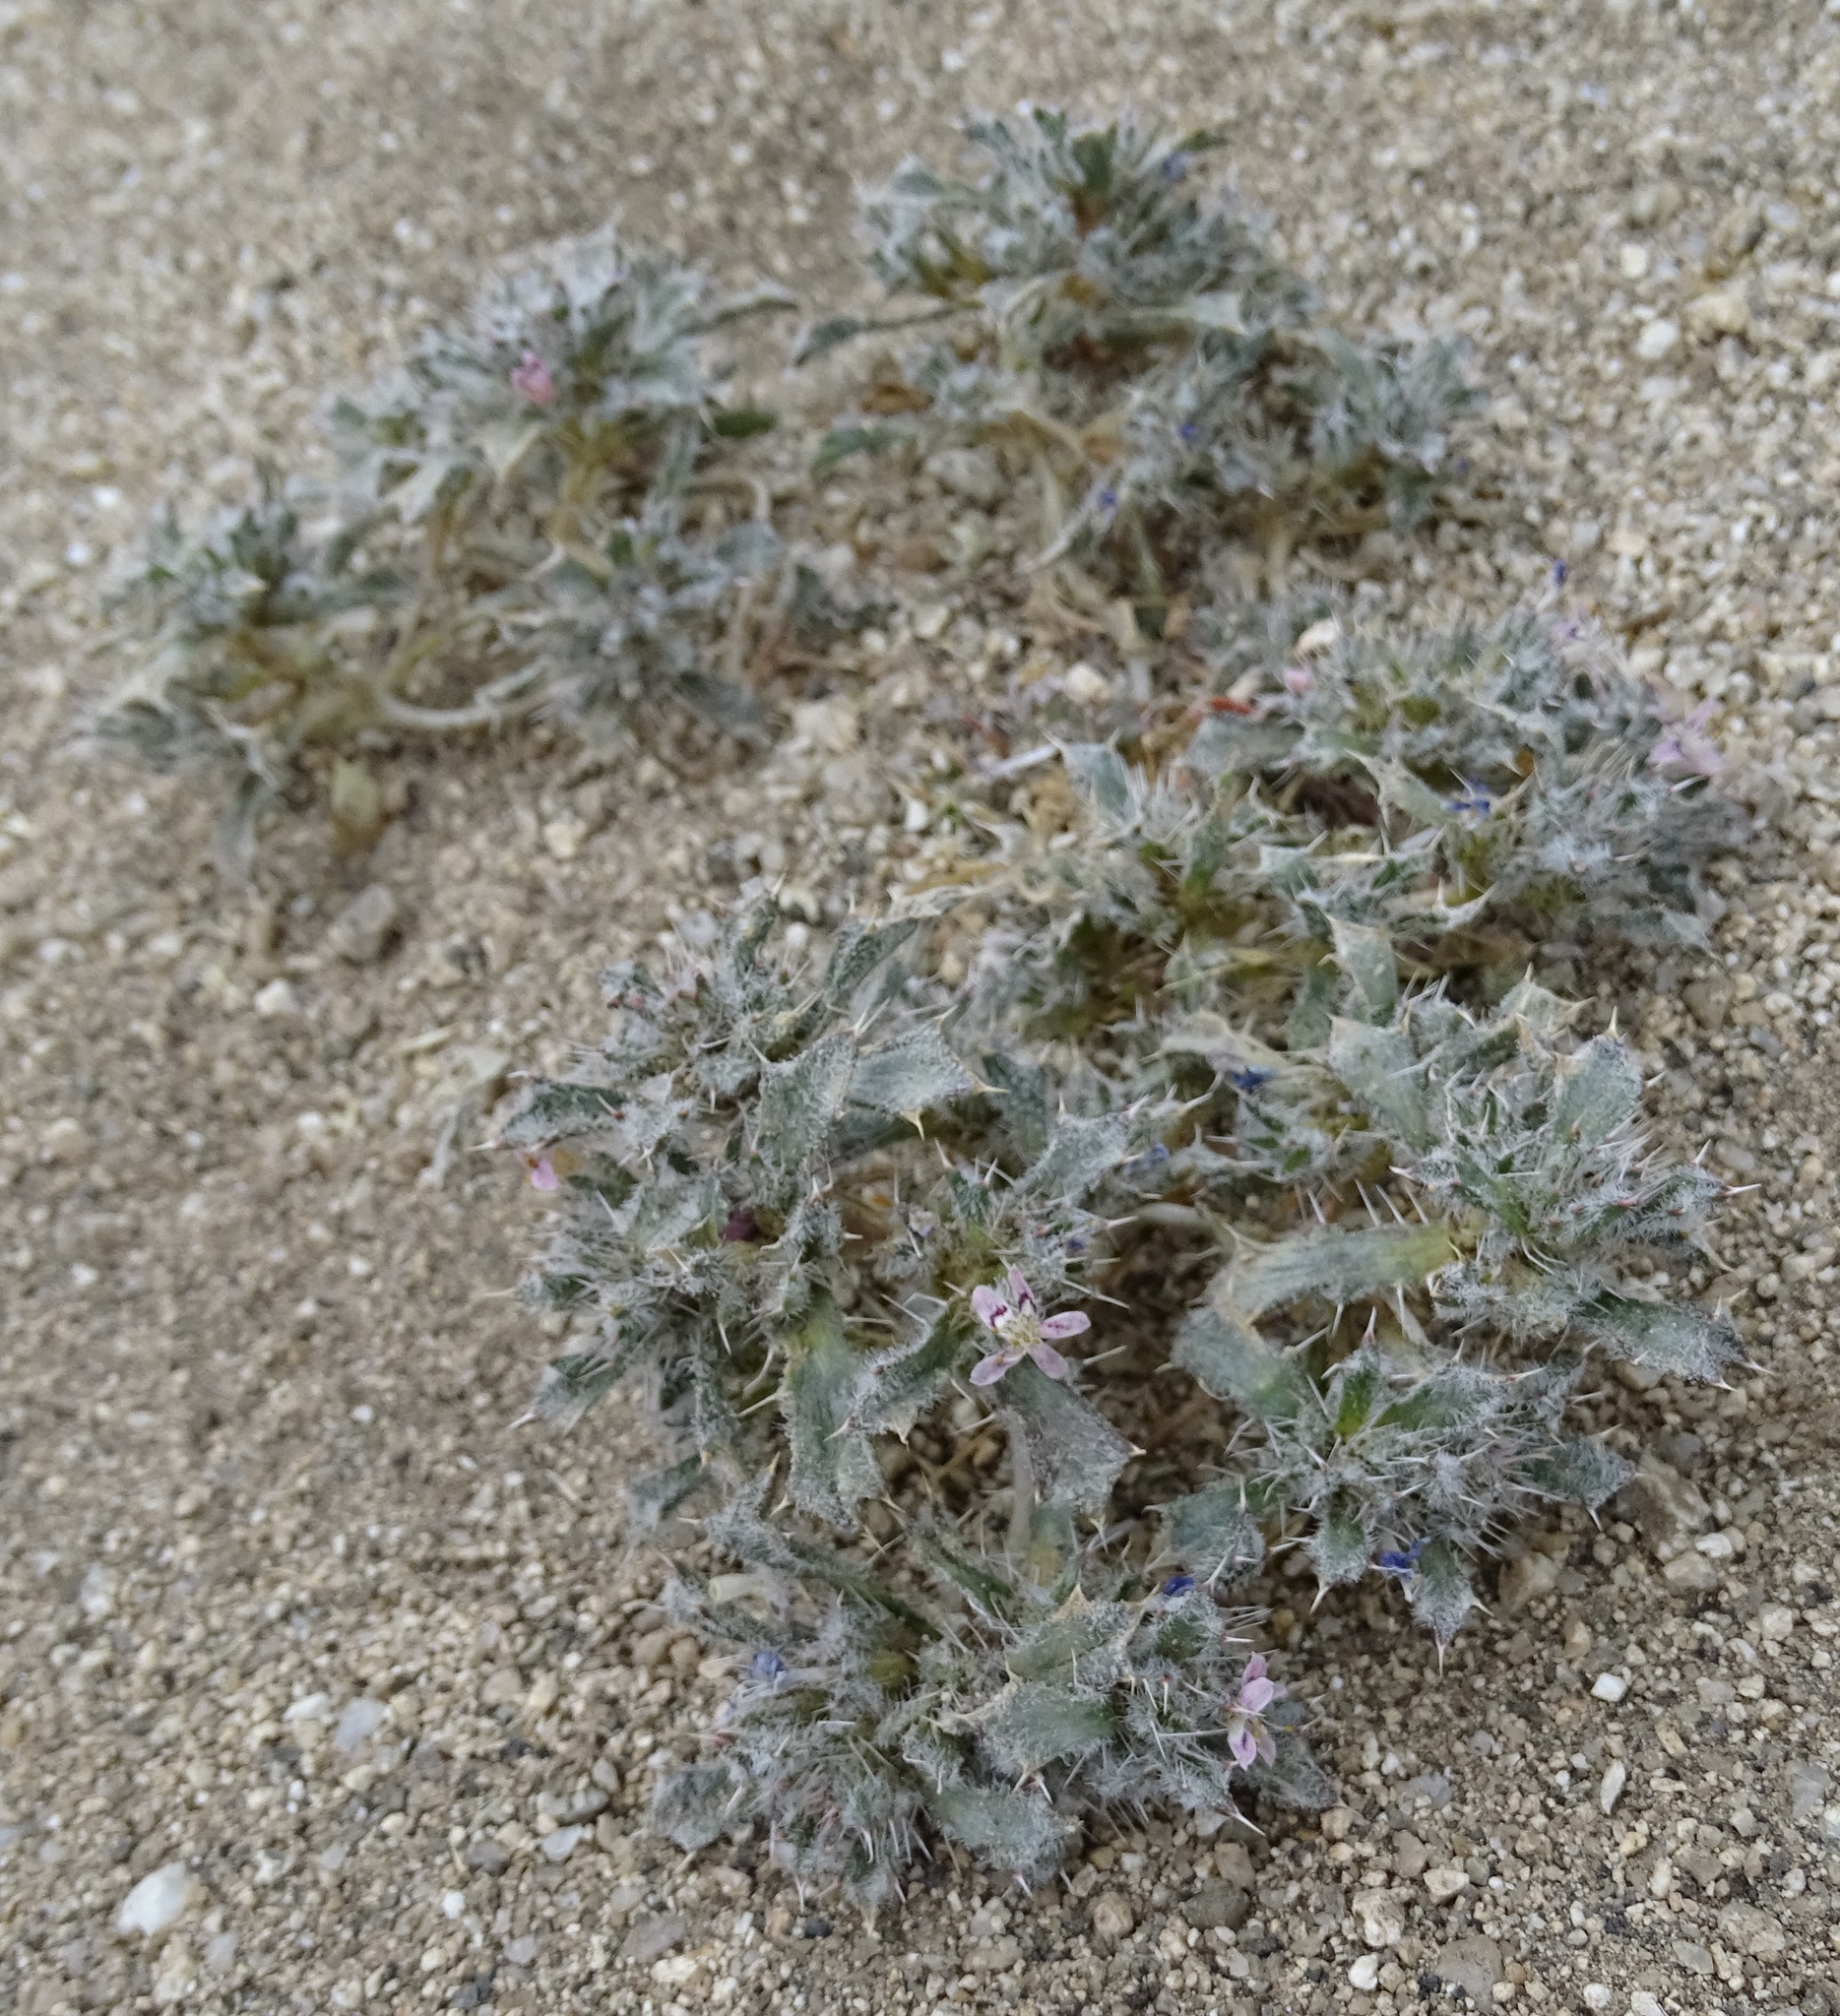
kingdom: Plantae
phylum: Tracheophyta
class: Magnoliopsida
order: Ericales
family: Polemoniaceae
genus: Loeseliastrum
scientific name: Loeseliastrum matthewsii
